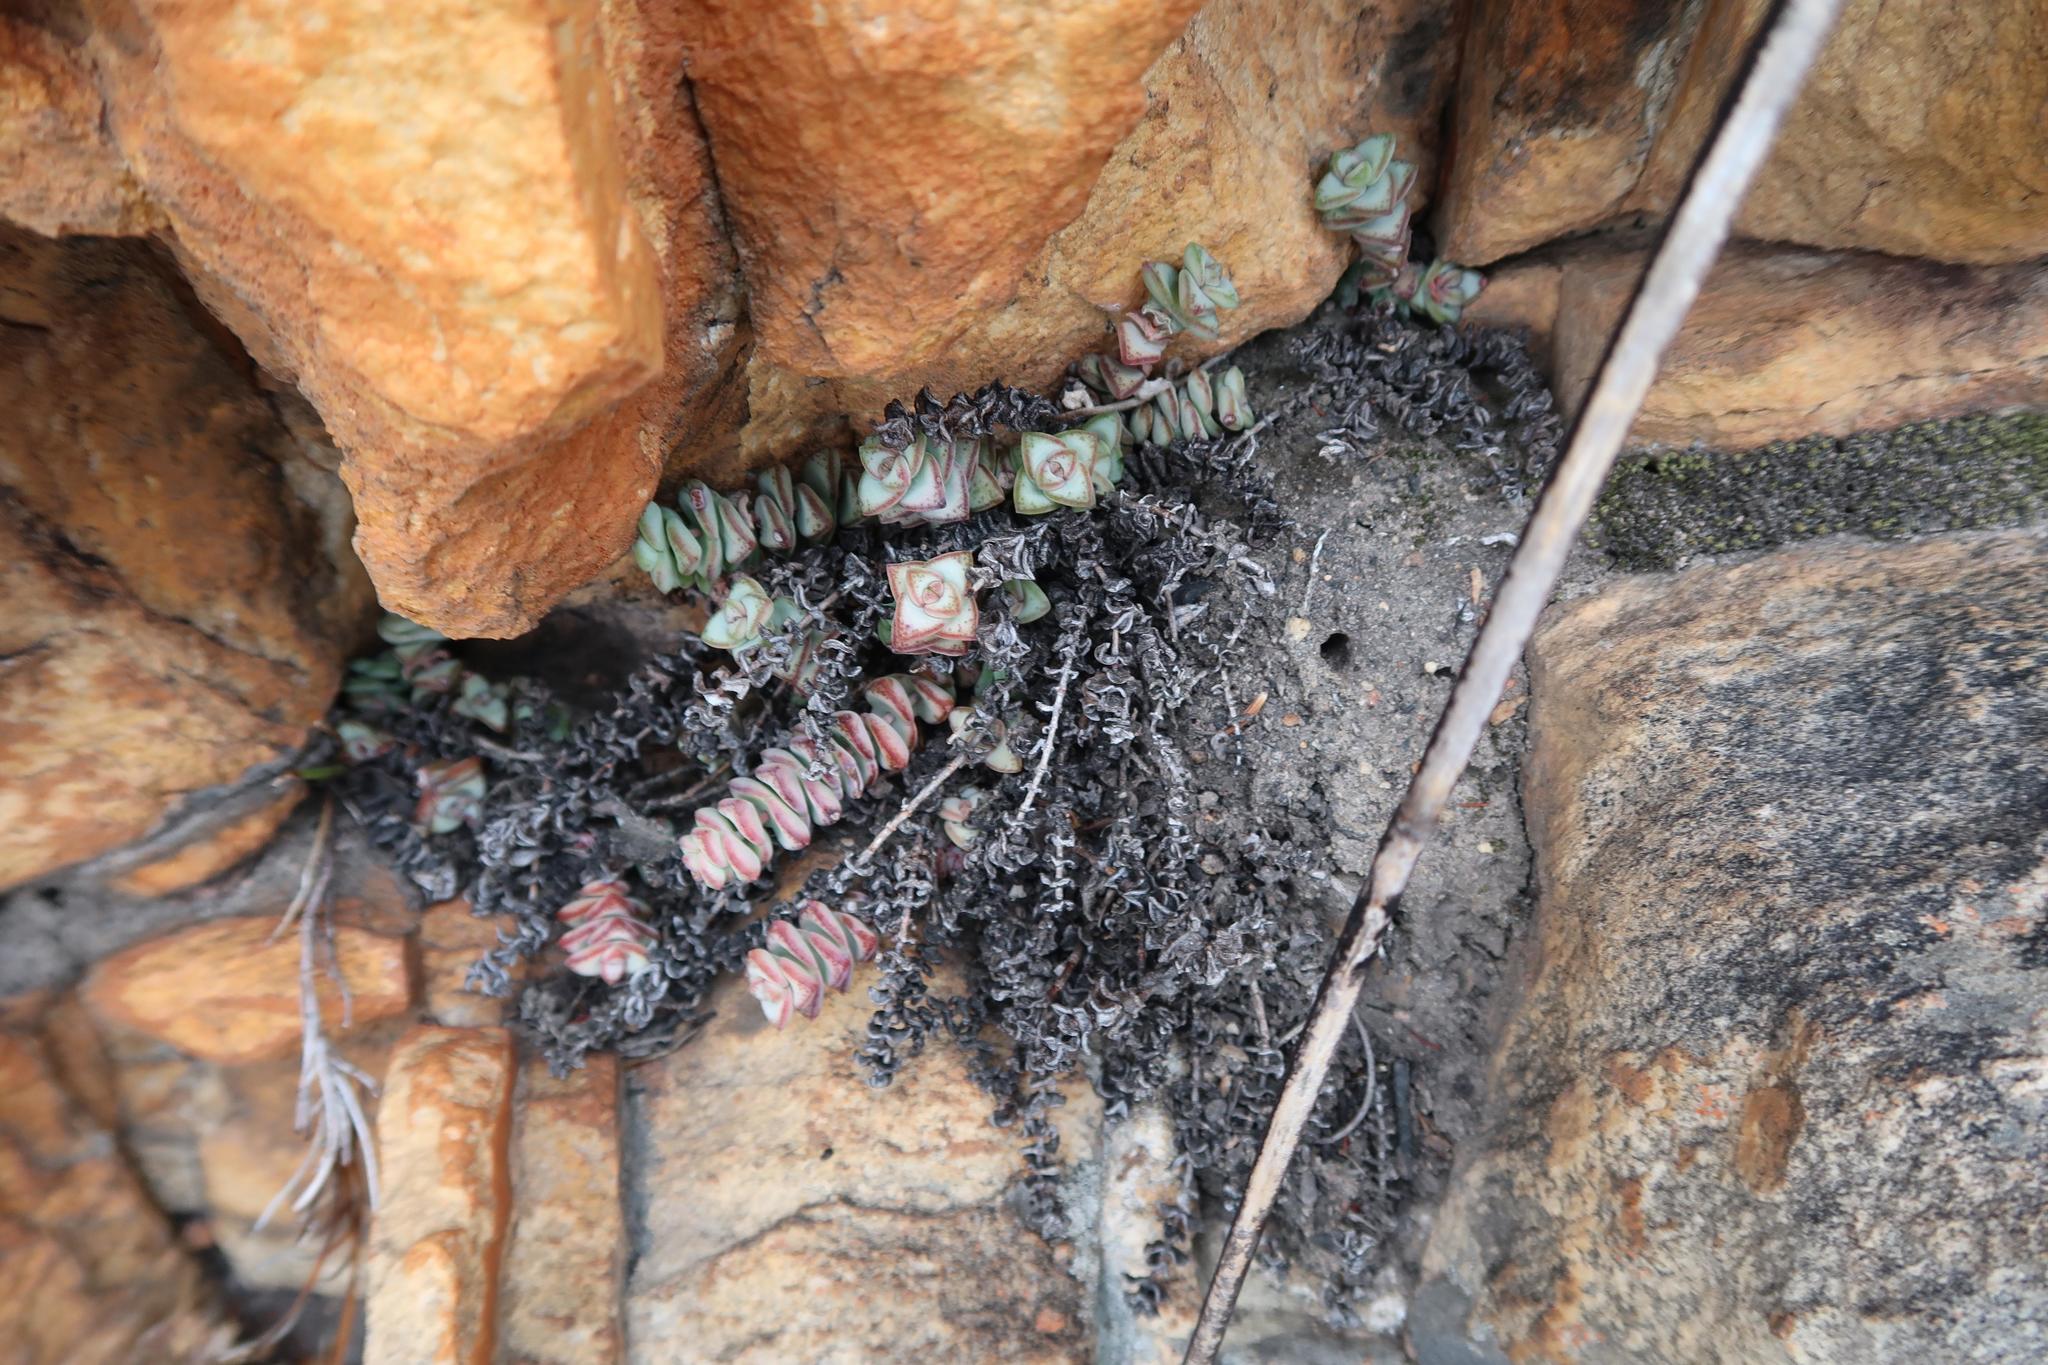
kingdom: Plantae
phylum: Tracheophyta
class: Magnoliopsida
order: Saxifragales
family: Crassulaceae
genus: Crassula
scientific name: Crassula perforata
